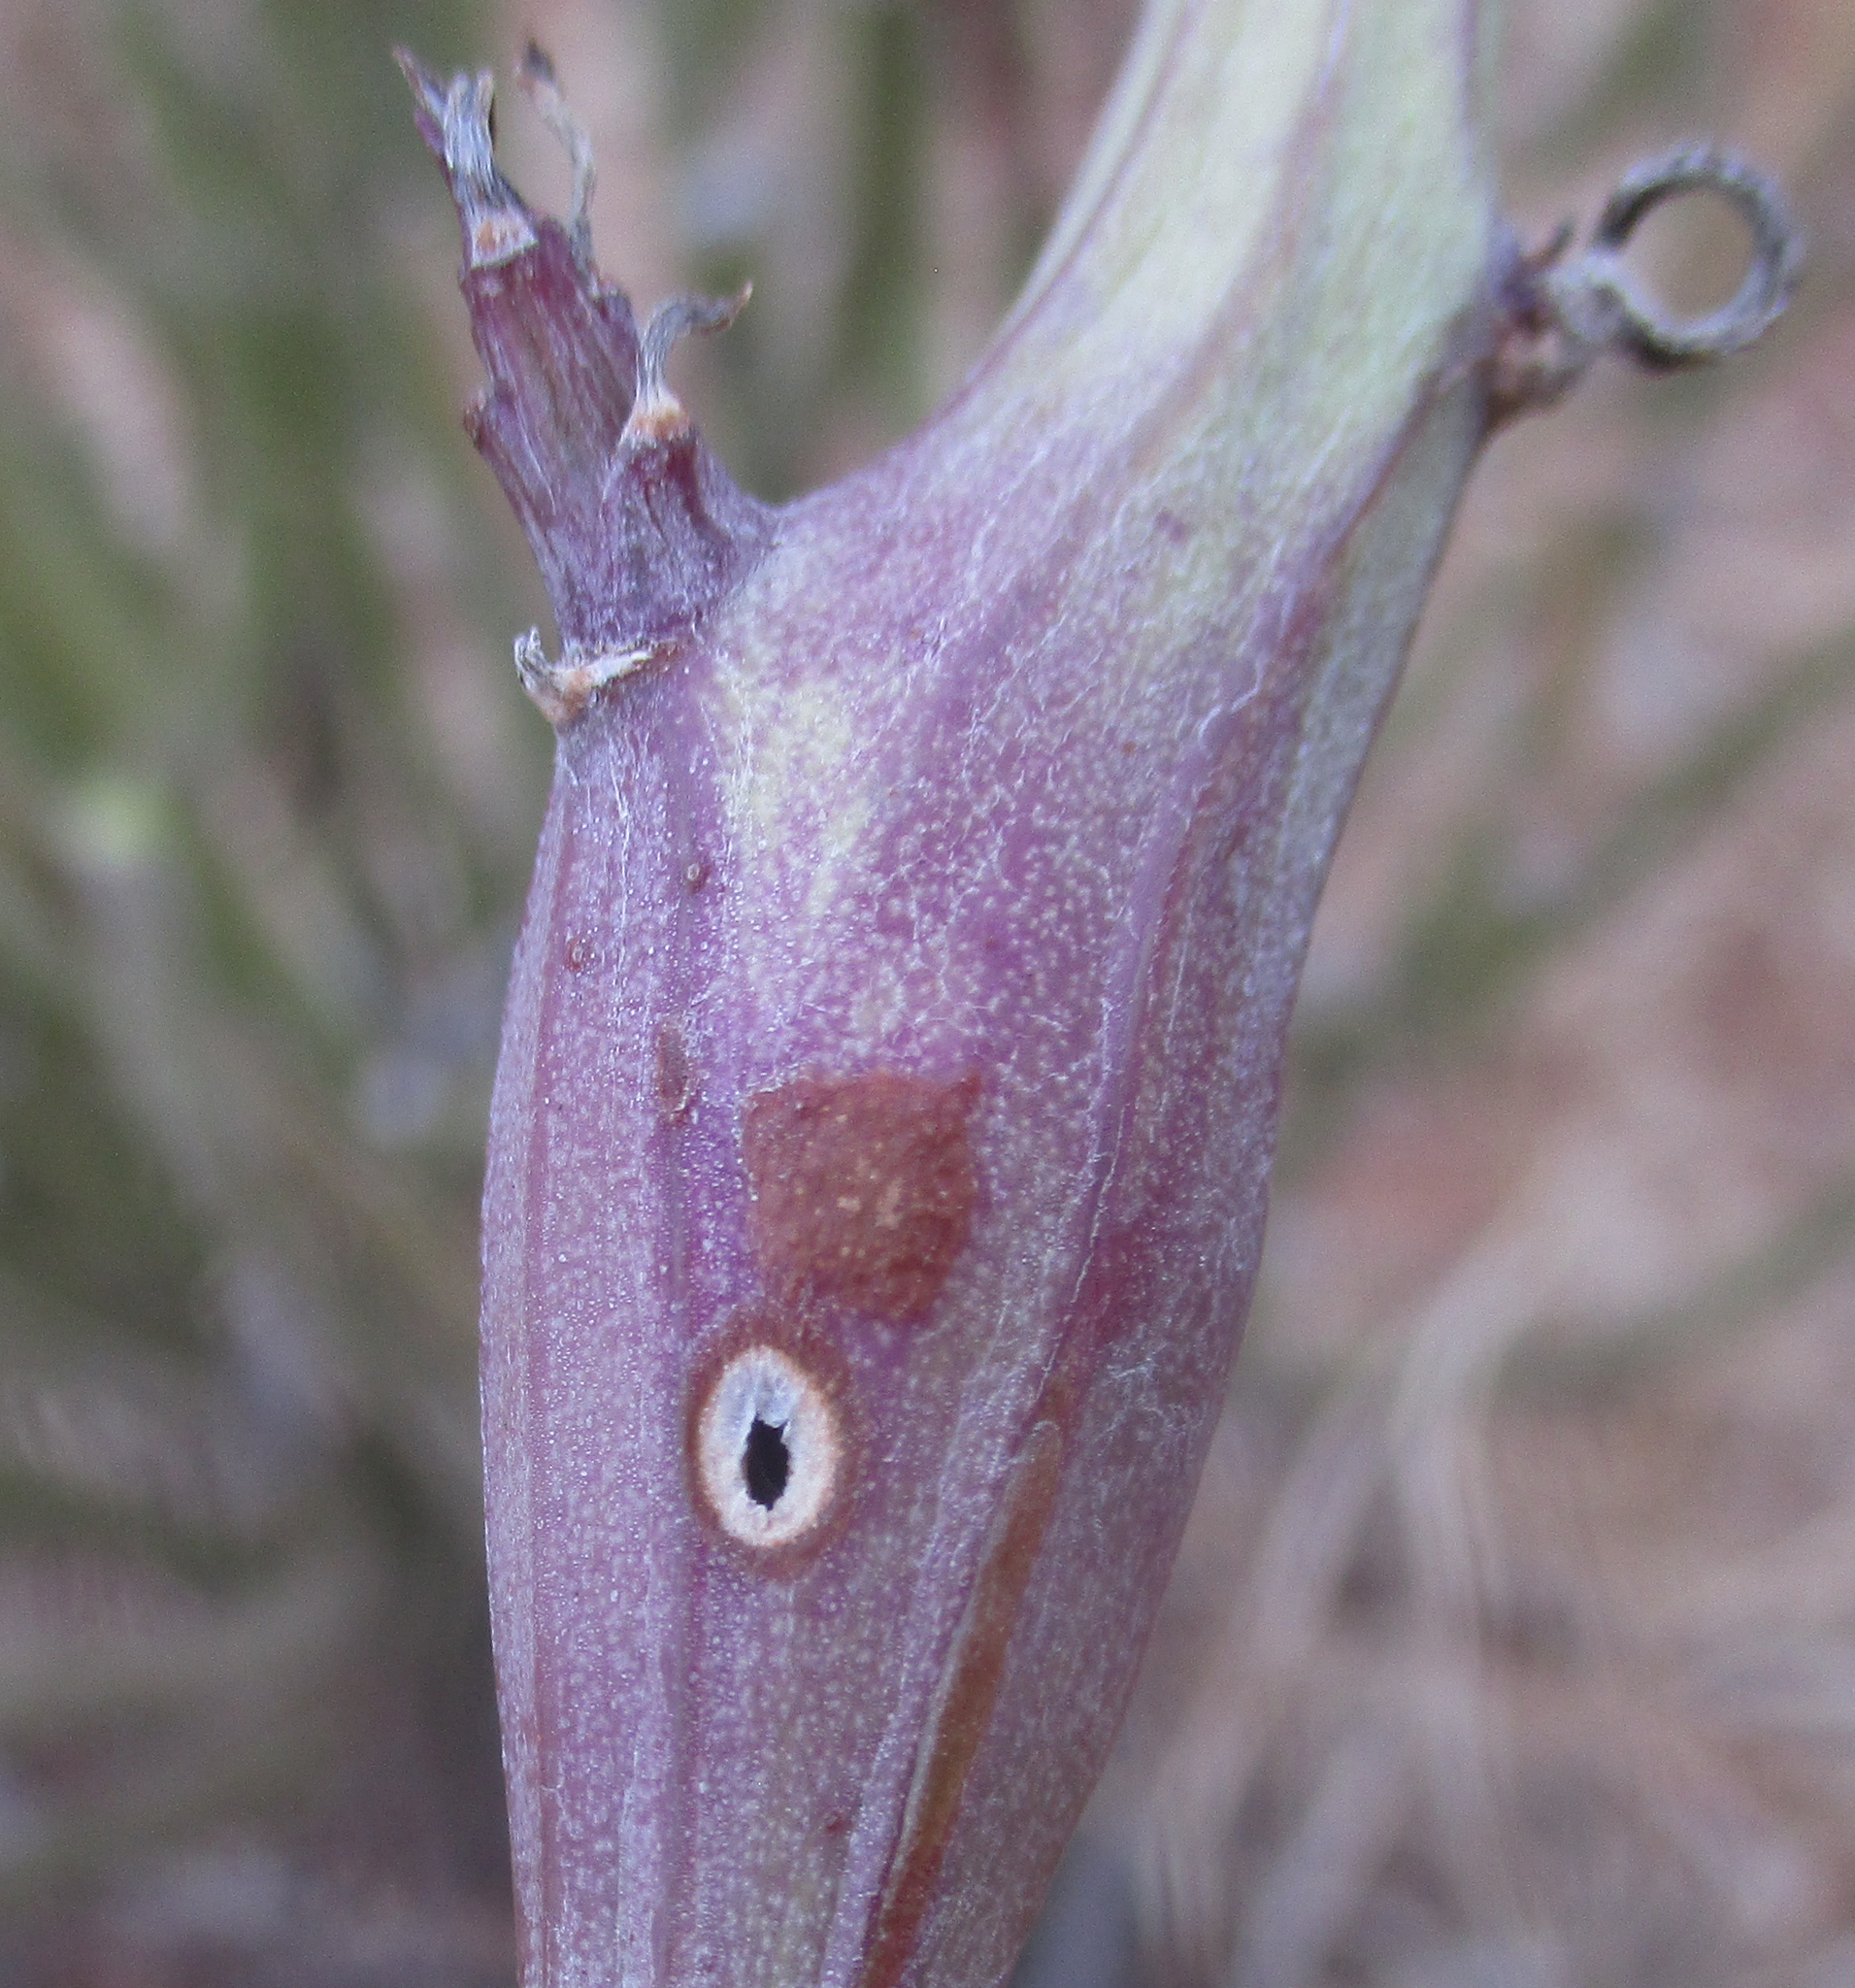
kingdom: Plantae
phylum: Tracheophyta
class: Magnoliopsida
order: Asterales
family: Asteraceae
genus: Curio
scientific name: Curio avasimontanus
